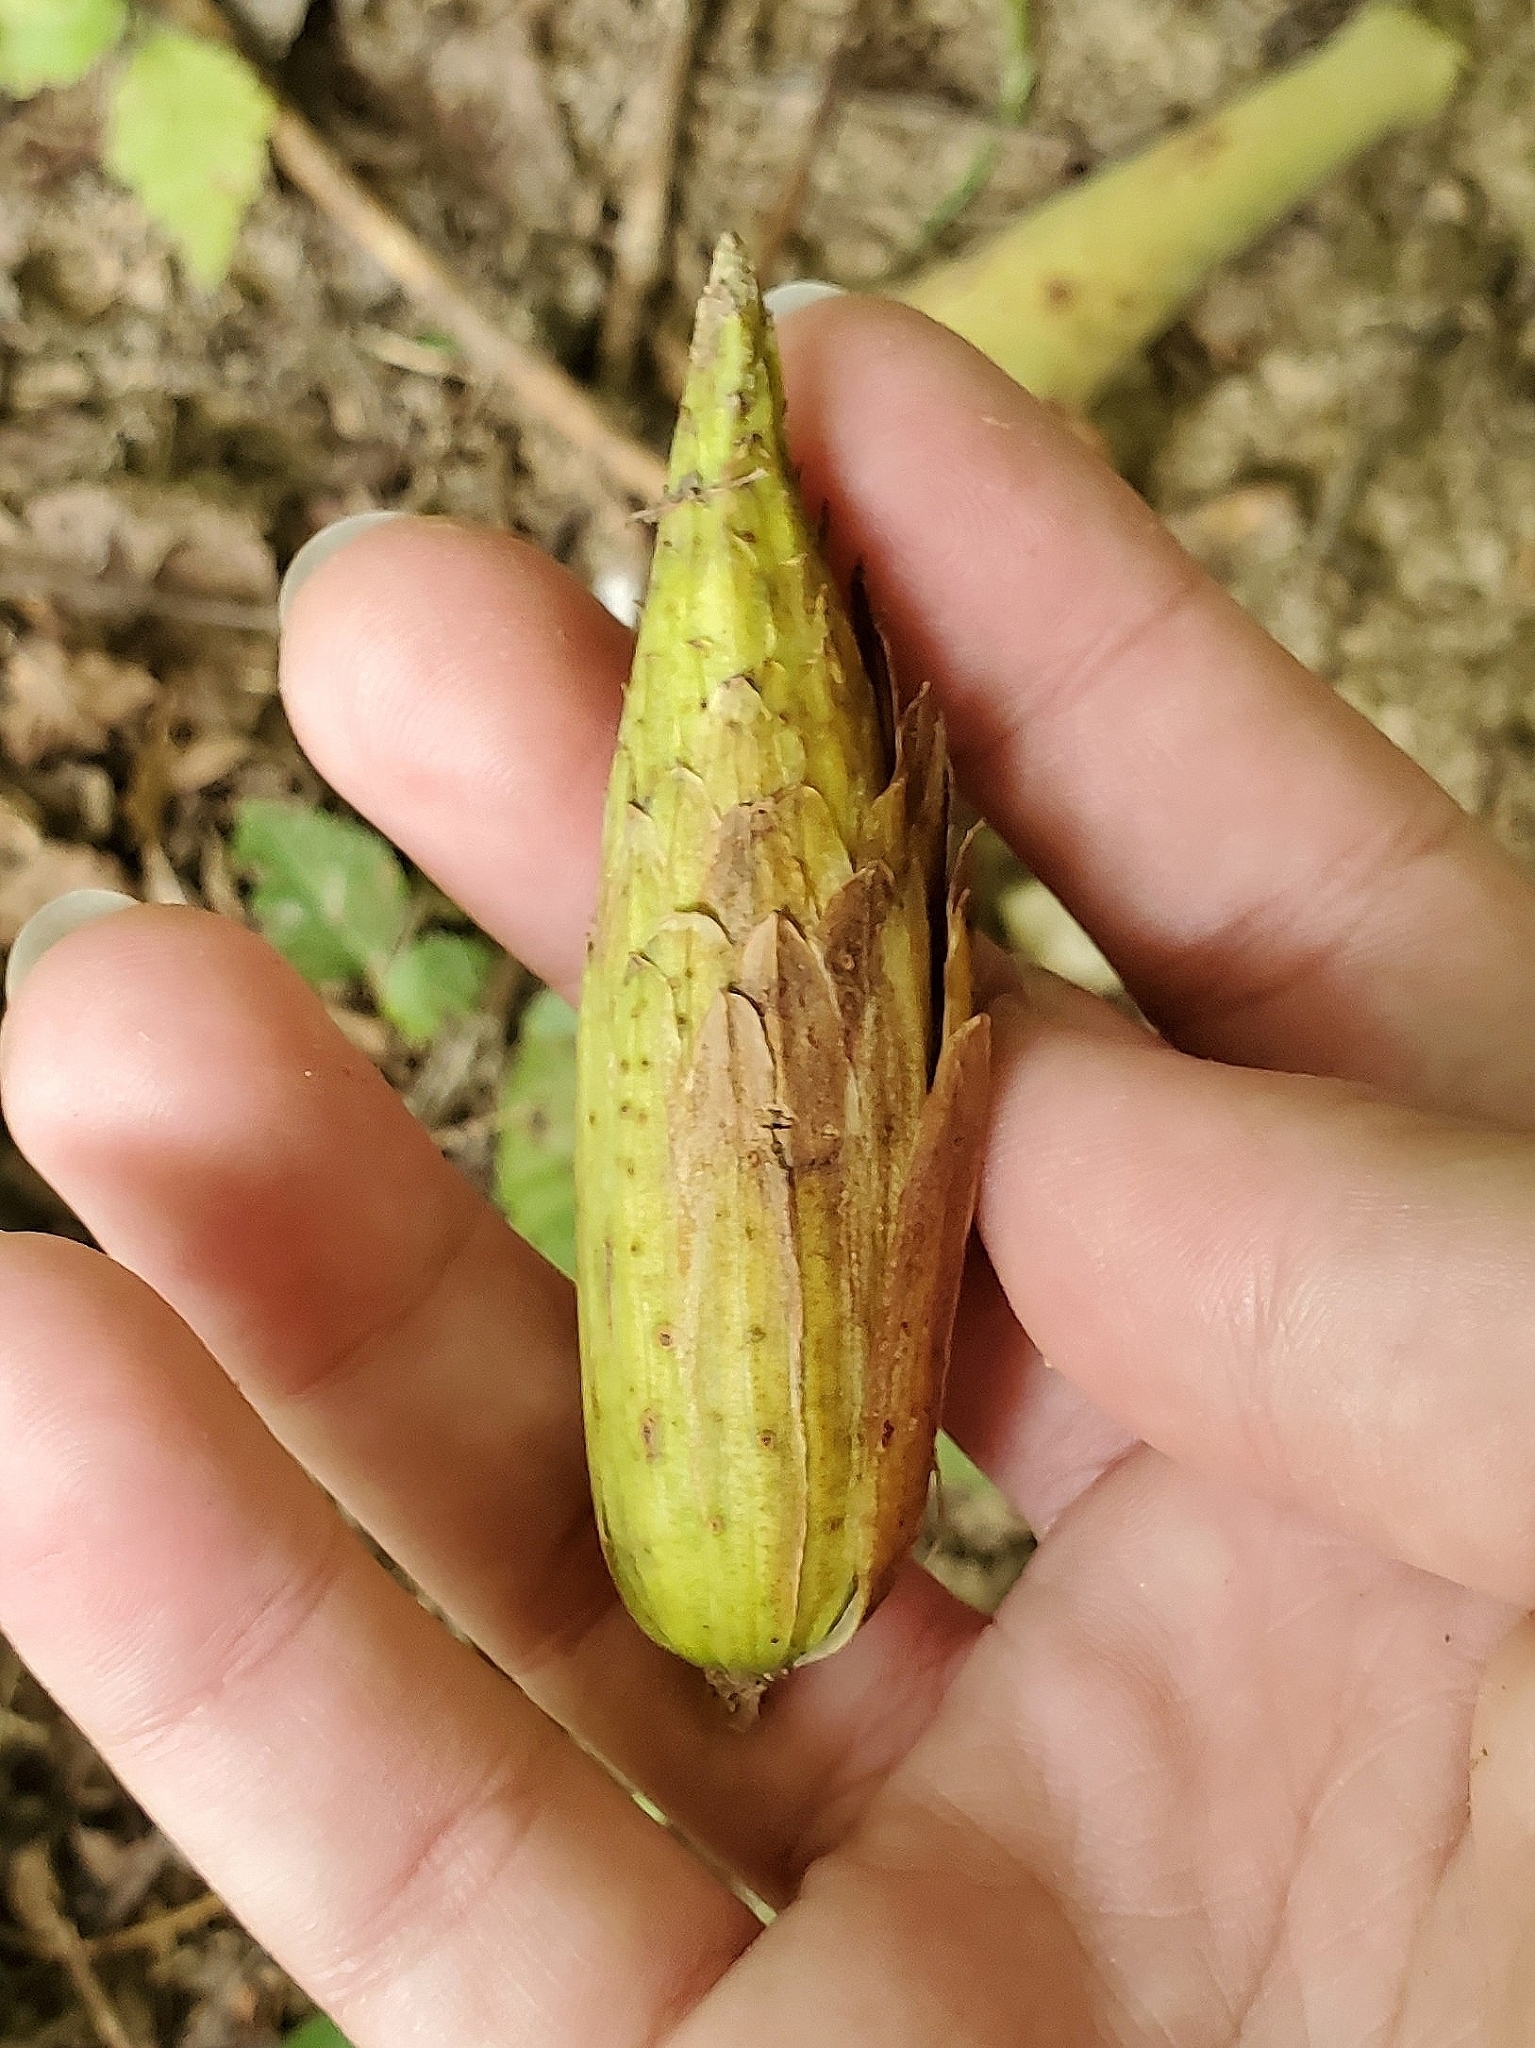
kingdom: Plantae
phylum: Tracheophyta
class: Magnoliopsida
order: Magnoliales
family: Magnoliaceae
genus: Liriodendron
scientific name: Liriodendron tulipifera
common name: Tulip tree
